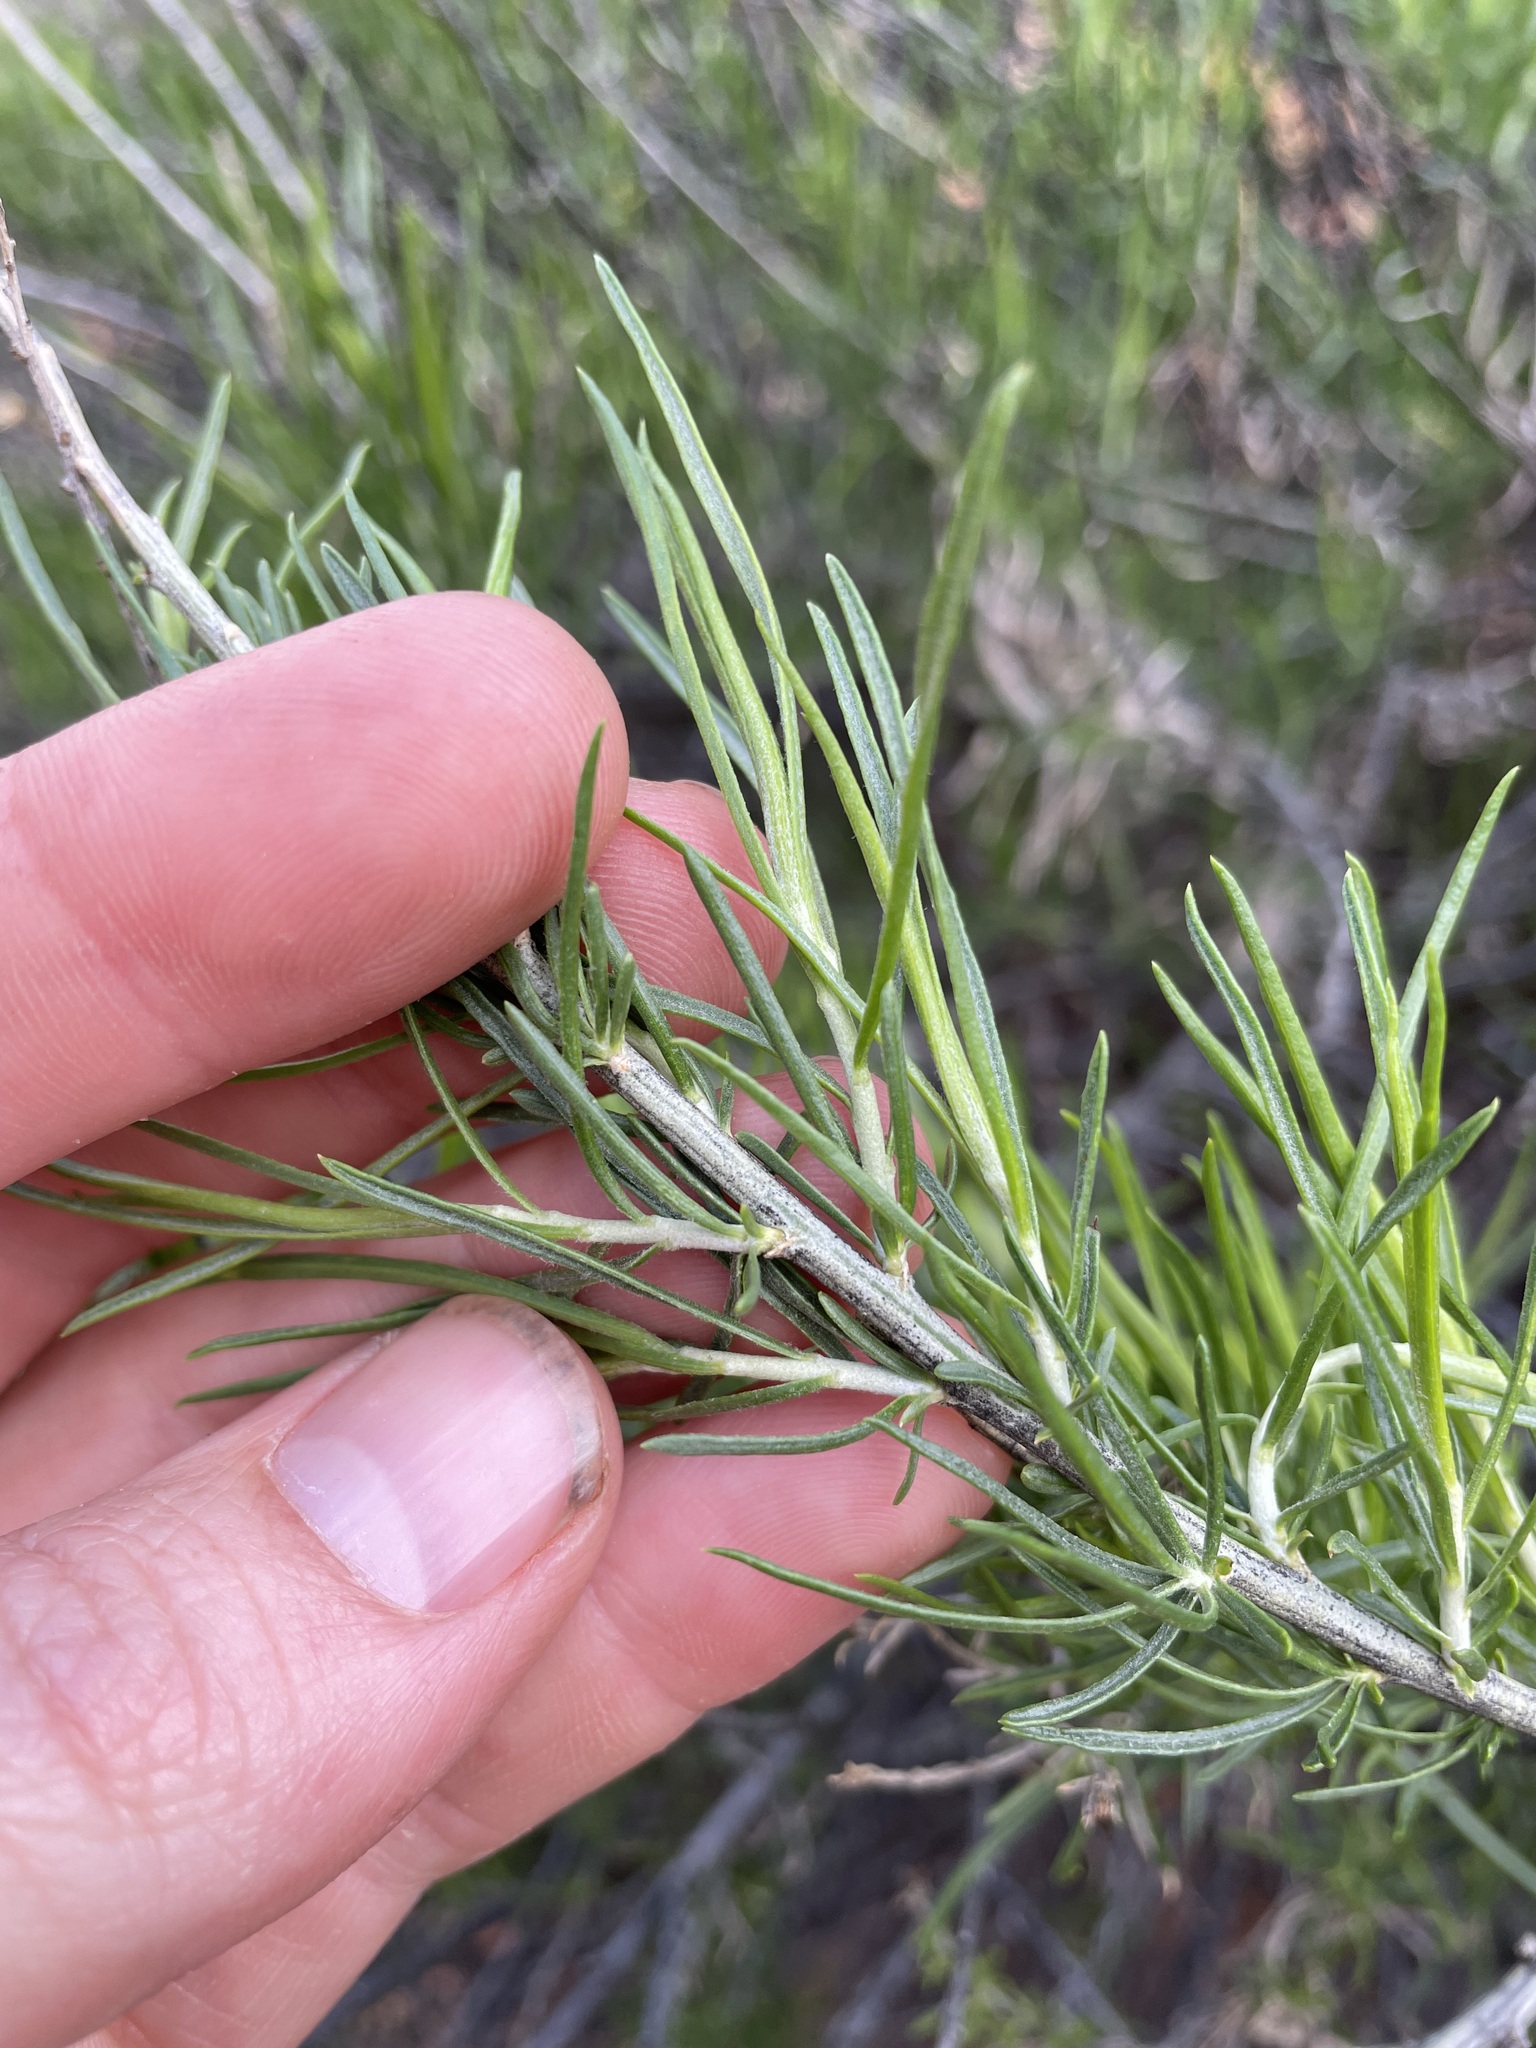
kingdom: Plantae
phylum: Tracheophyta
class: Magnoliopsida
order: Asterales
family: Asteraceae
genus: Ericameria
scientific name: Ericameria nauseosa
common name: Rubber rabbitbrush
